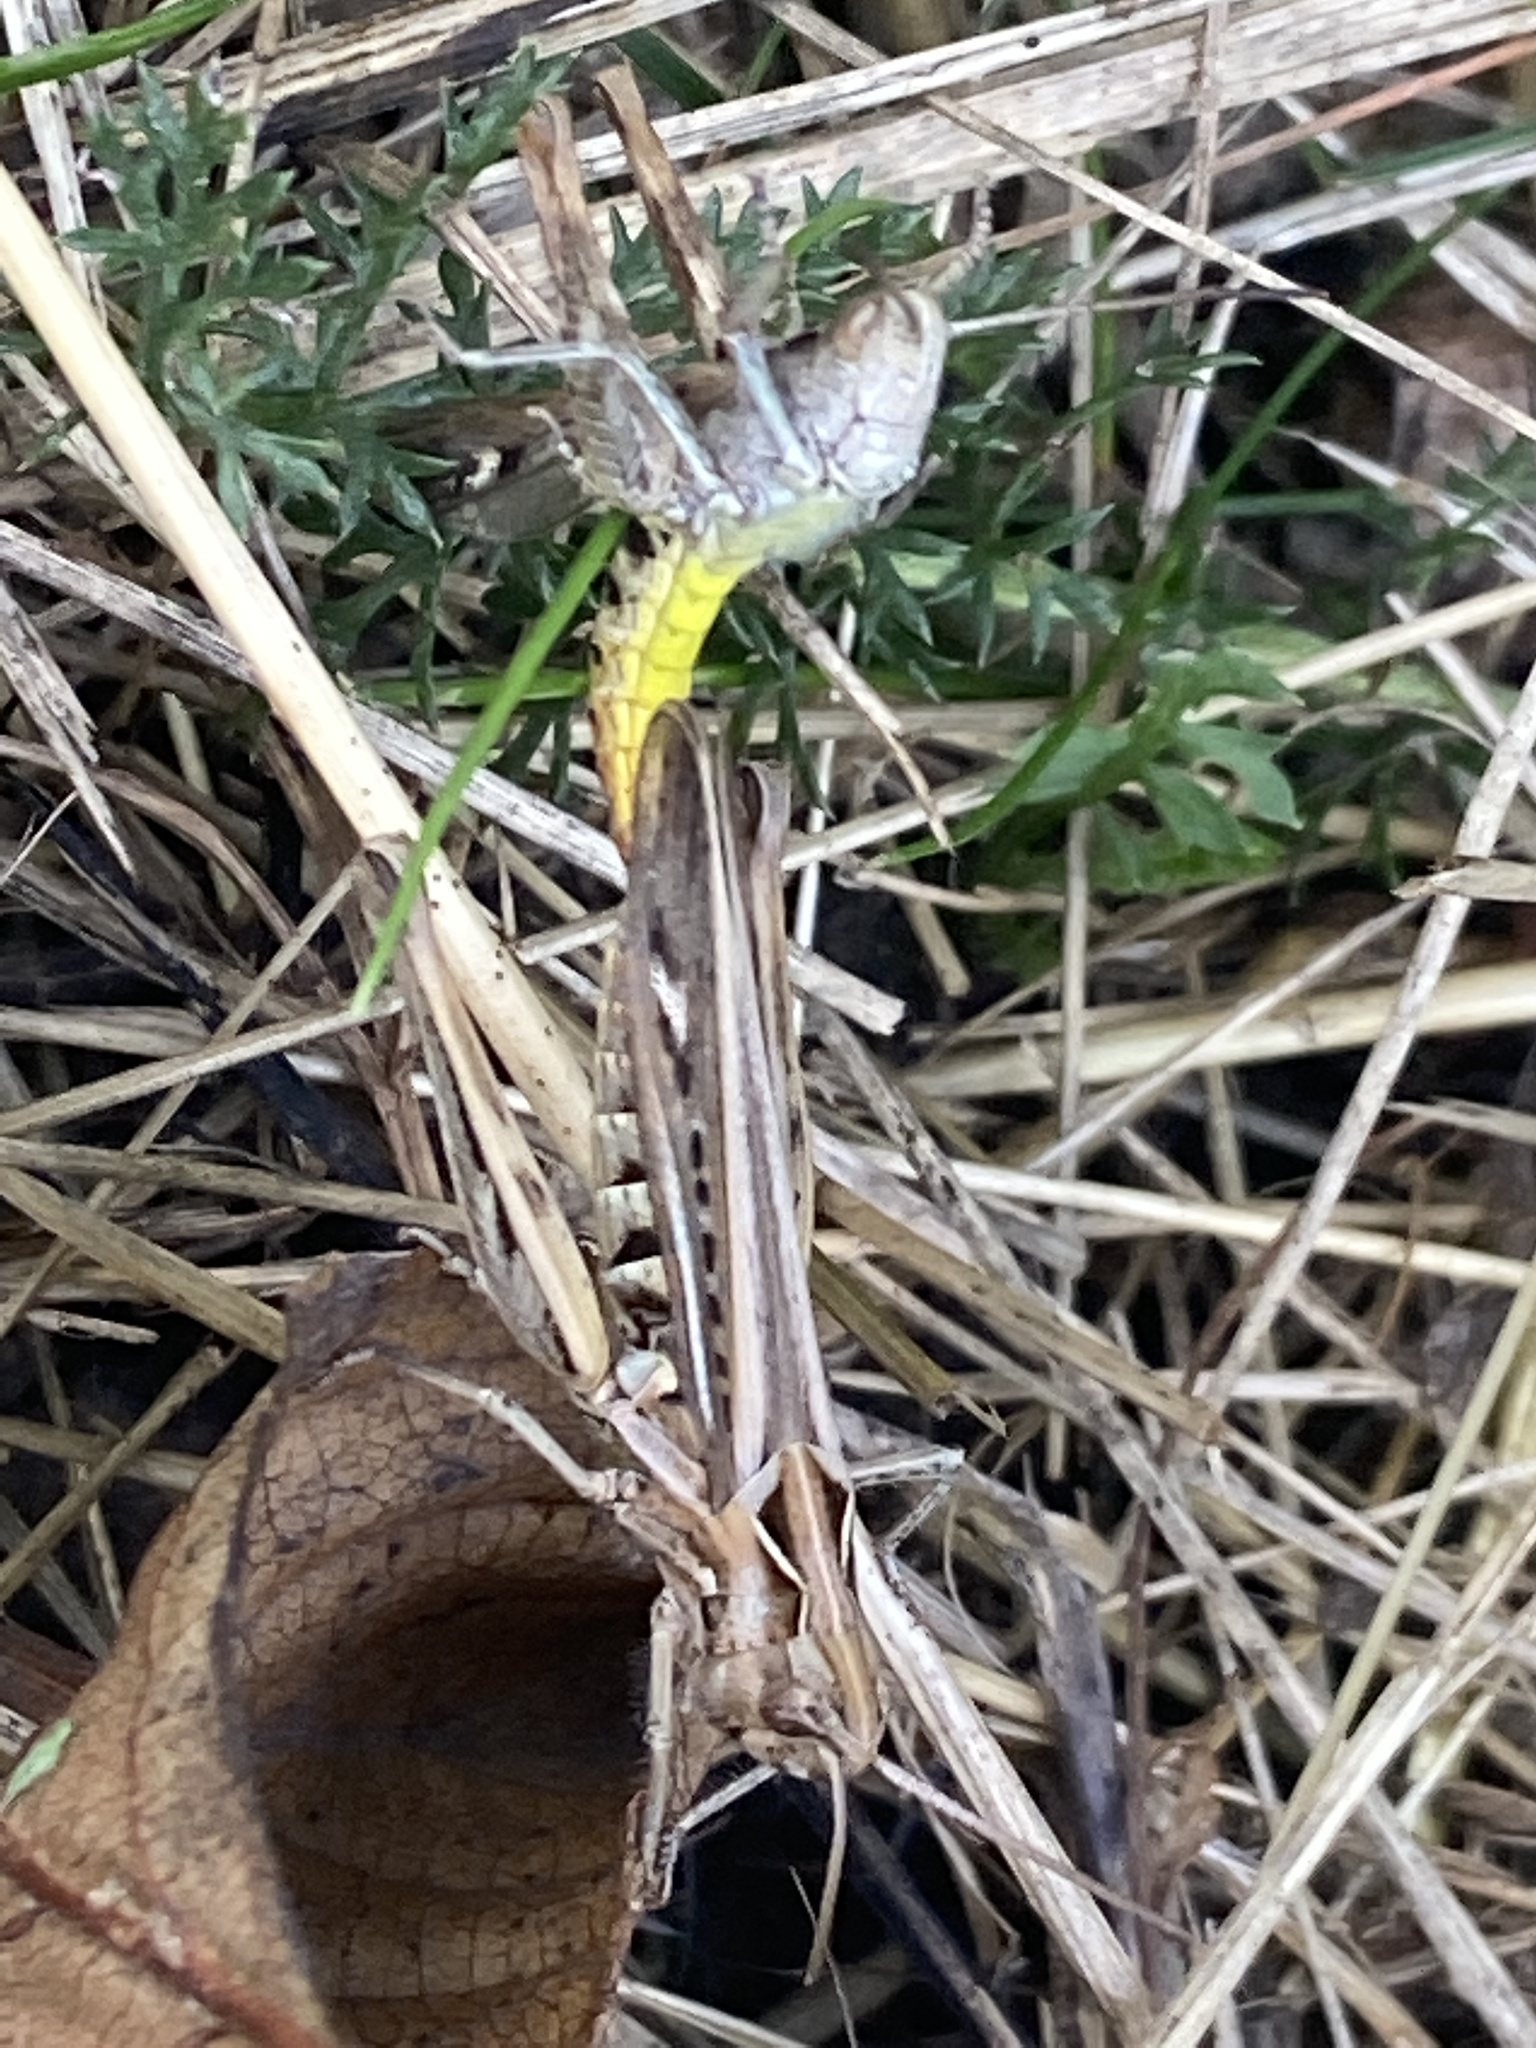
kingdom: Animalia
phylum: Arthropoda
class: Insecta
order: Orthoptera
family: Acrididae
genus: Chorthippus
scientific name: Chorthippus biguttulus
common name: Bow-winged grasshopper
